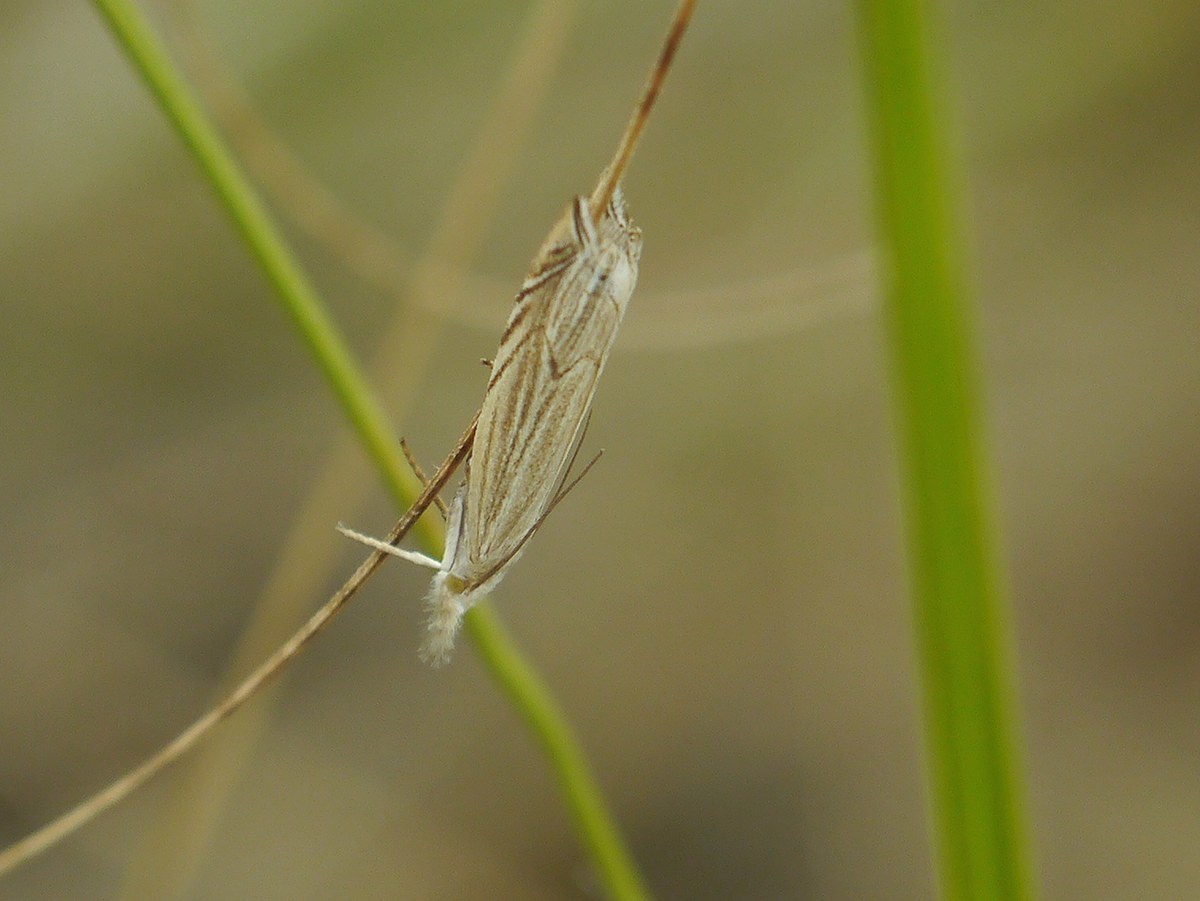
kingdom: Animalia
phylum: Arthropoda
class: Insecta
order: Lepidoptera
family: Crambidae
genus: Metacrambus
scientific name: Metacrambus carectellus
